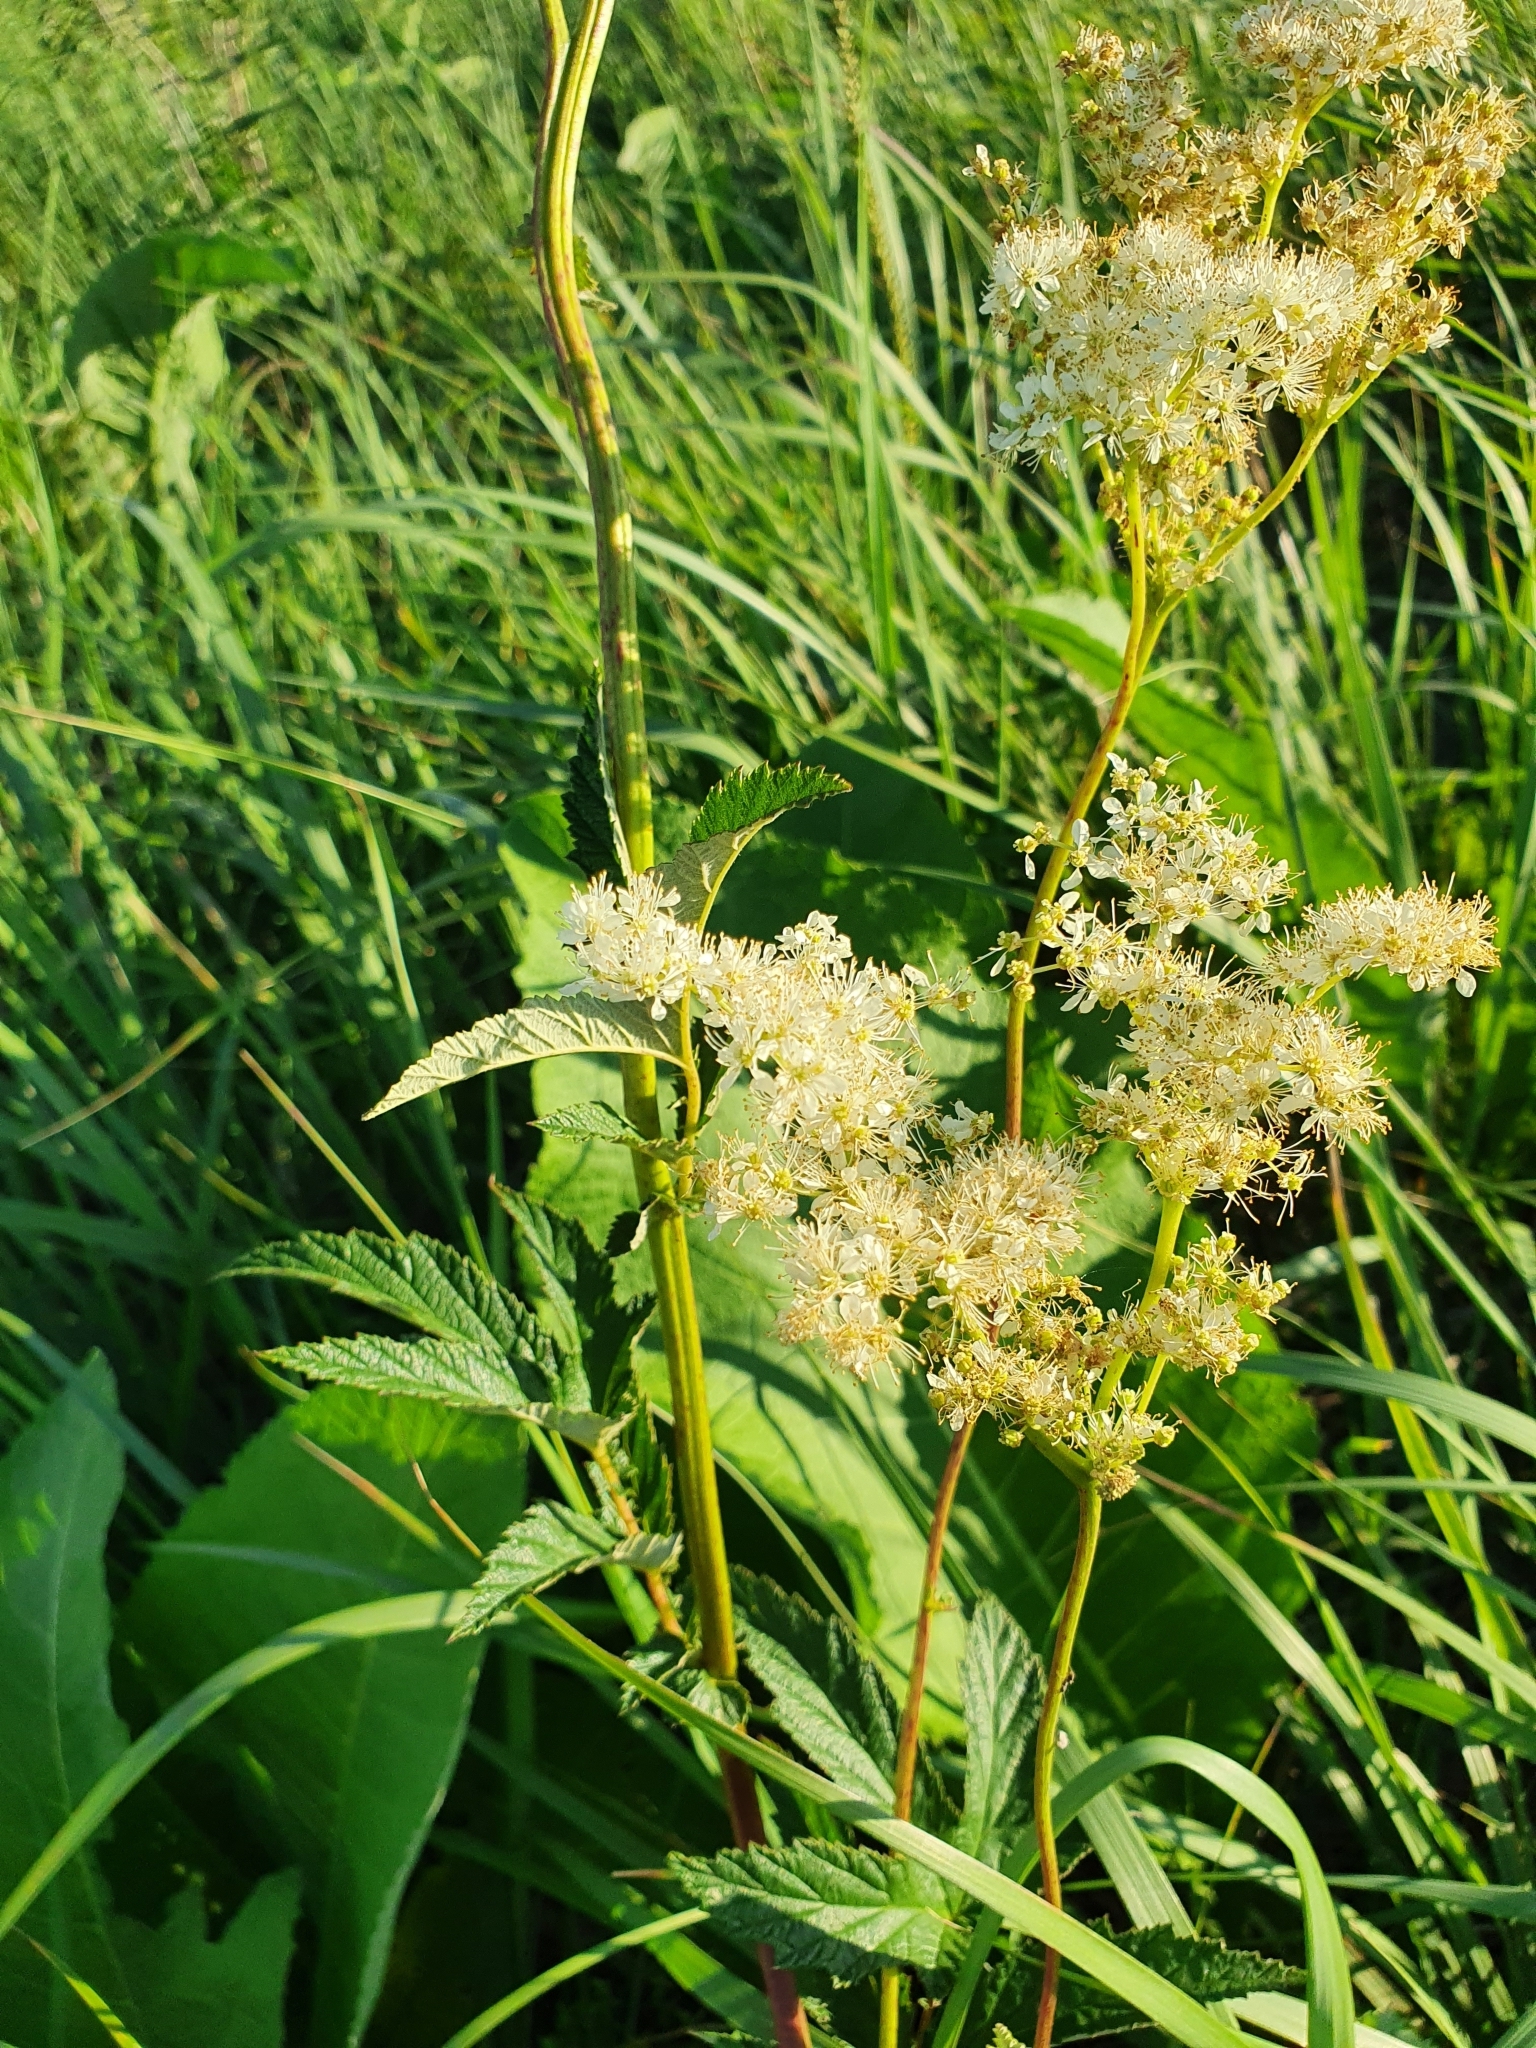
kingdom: Plantae
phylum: Tracheophyta
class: Magnoliopsida
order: Rosales
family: Rosaceae
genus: Filipendula
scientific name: Filipendula ulmaria
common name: Meadowsweet
